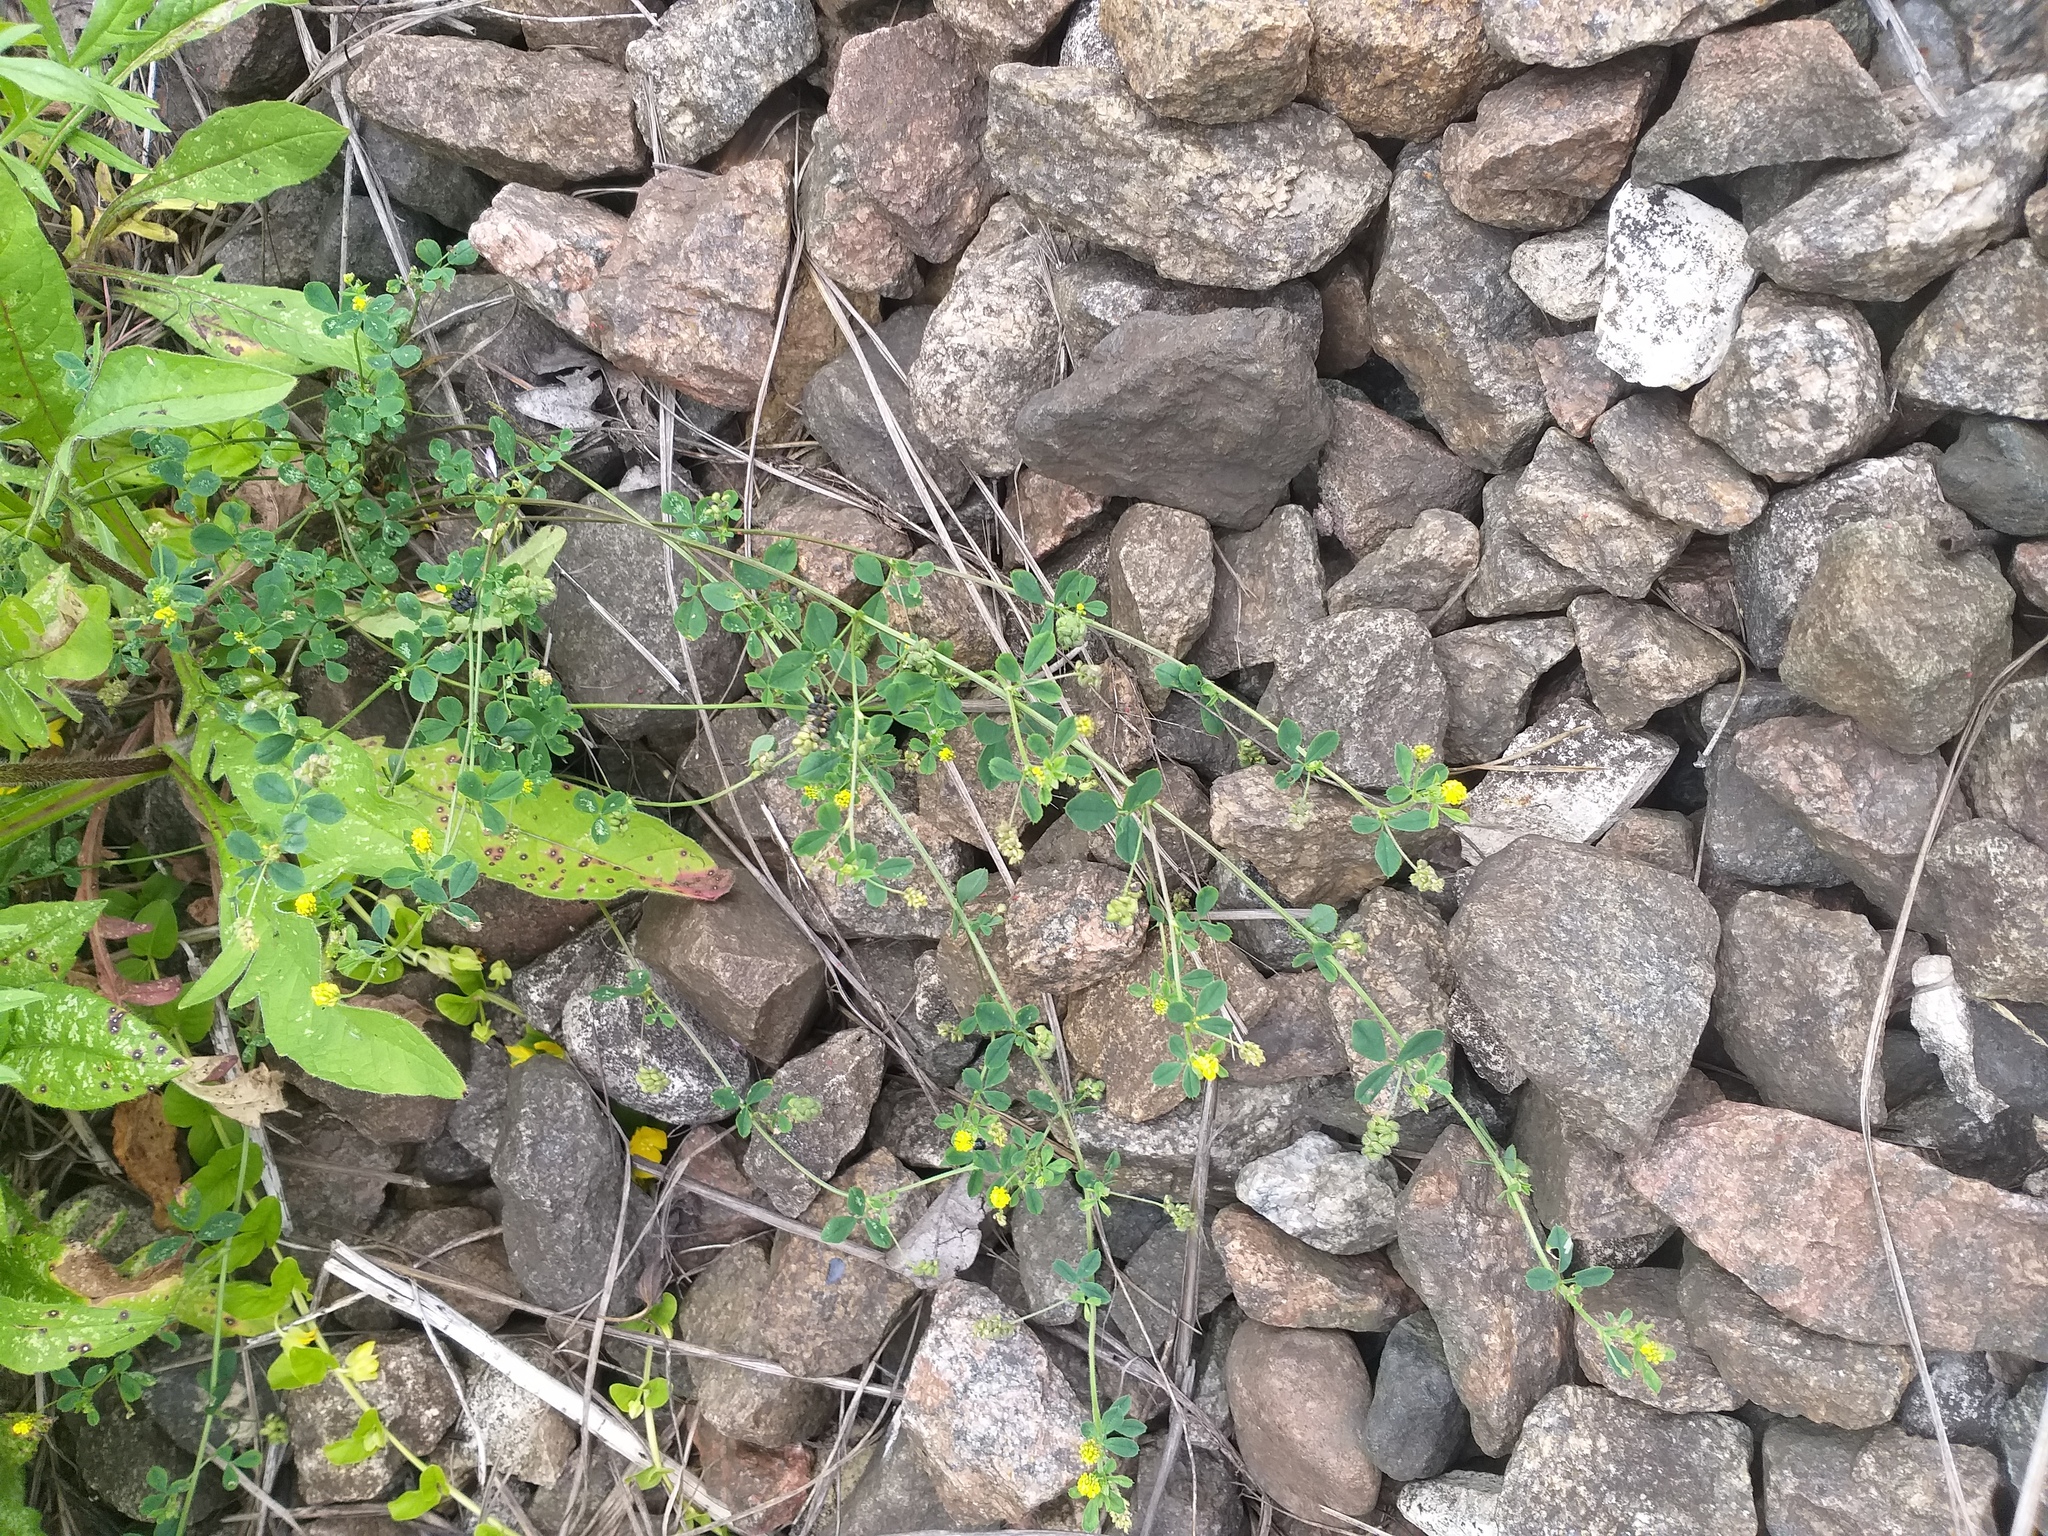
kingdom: Plantae
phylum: Tracheophyta
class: Magnoliopsida
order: Fabales
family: Fabaceae
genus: Medicago
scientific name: Medicago lupulina
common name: Black medick
